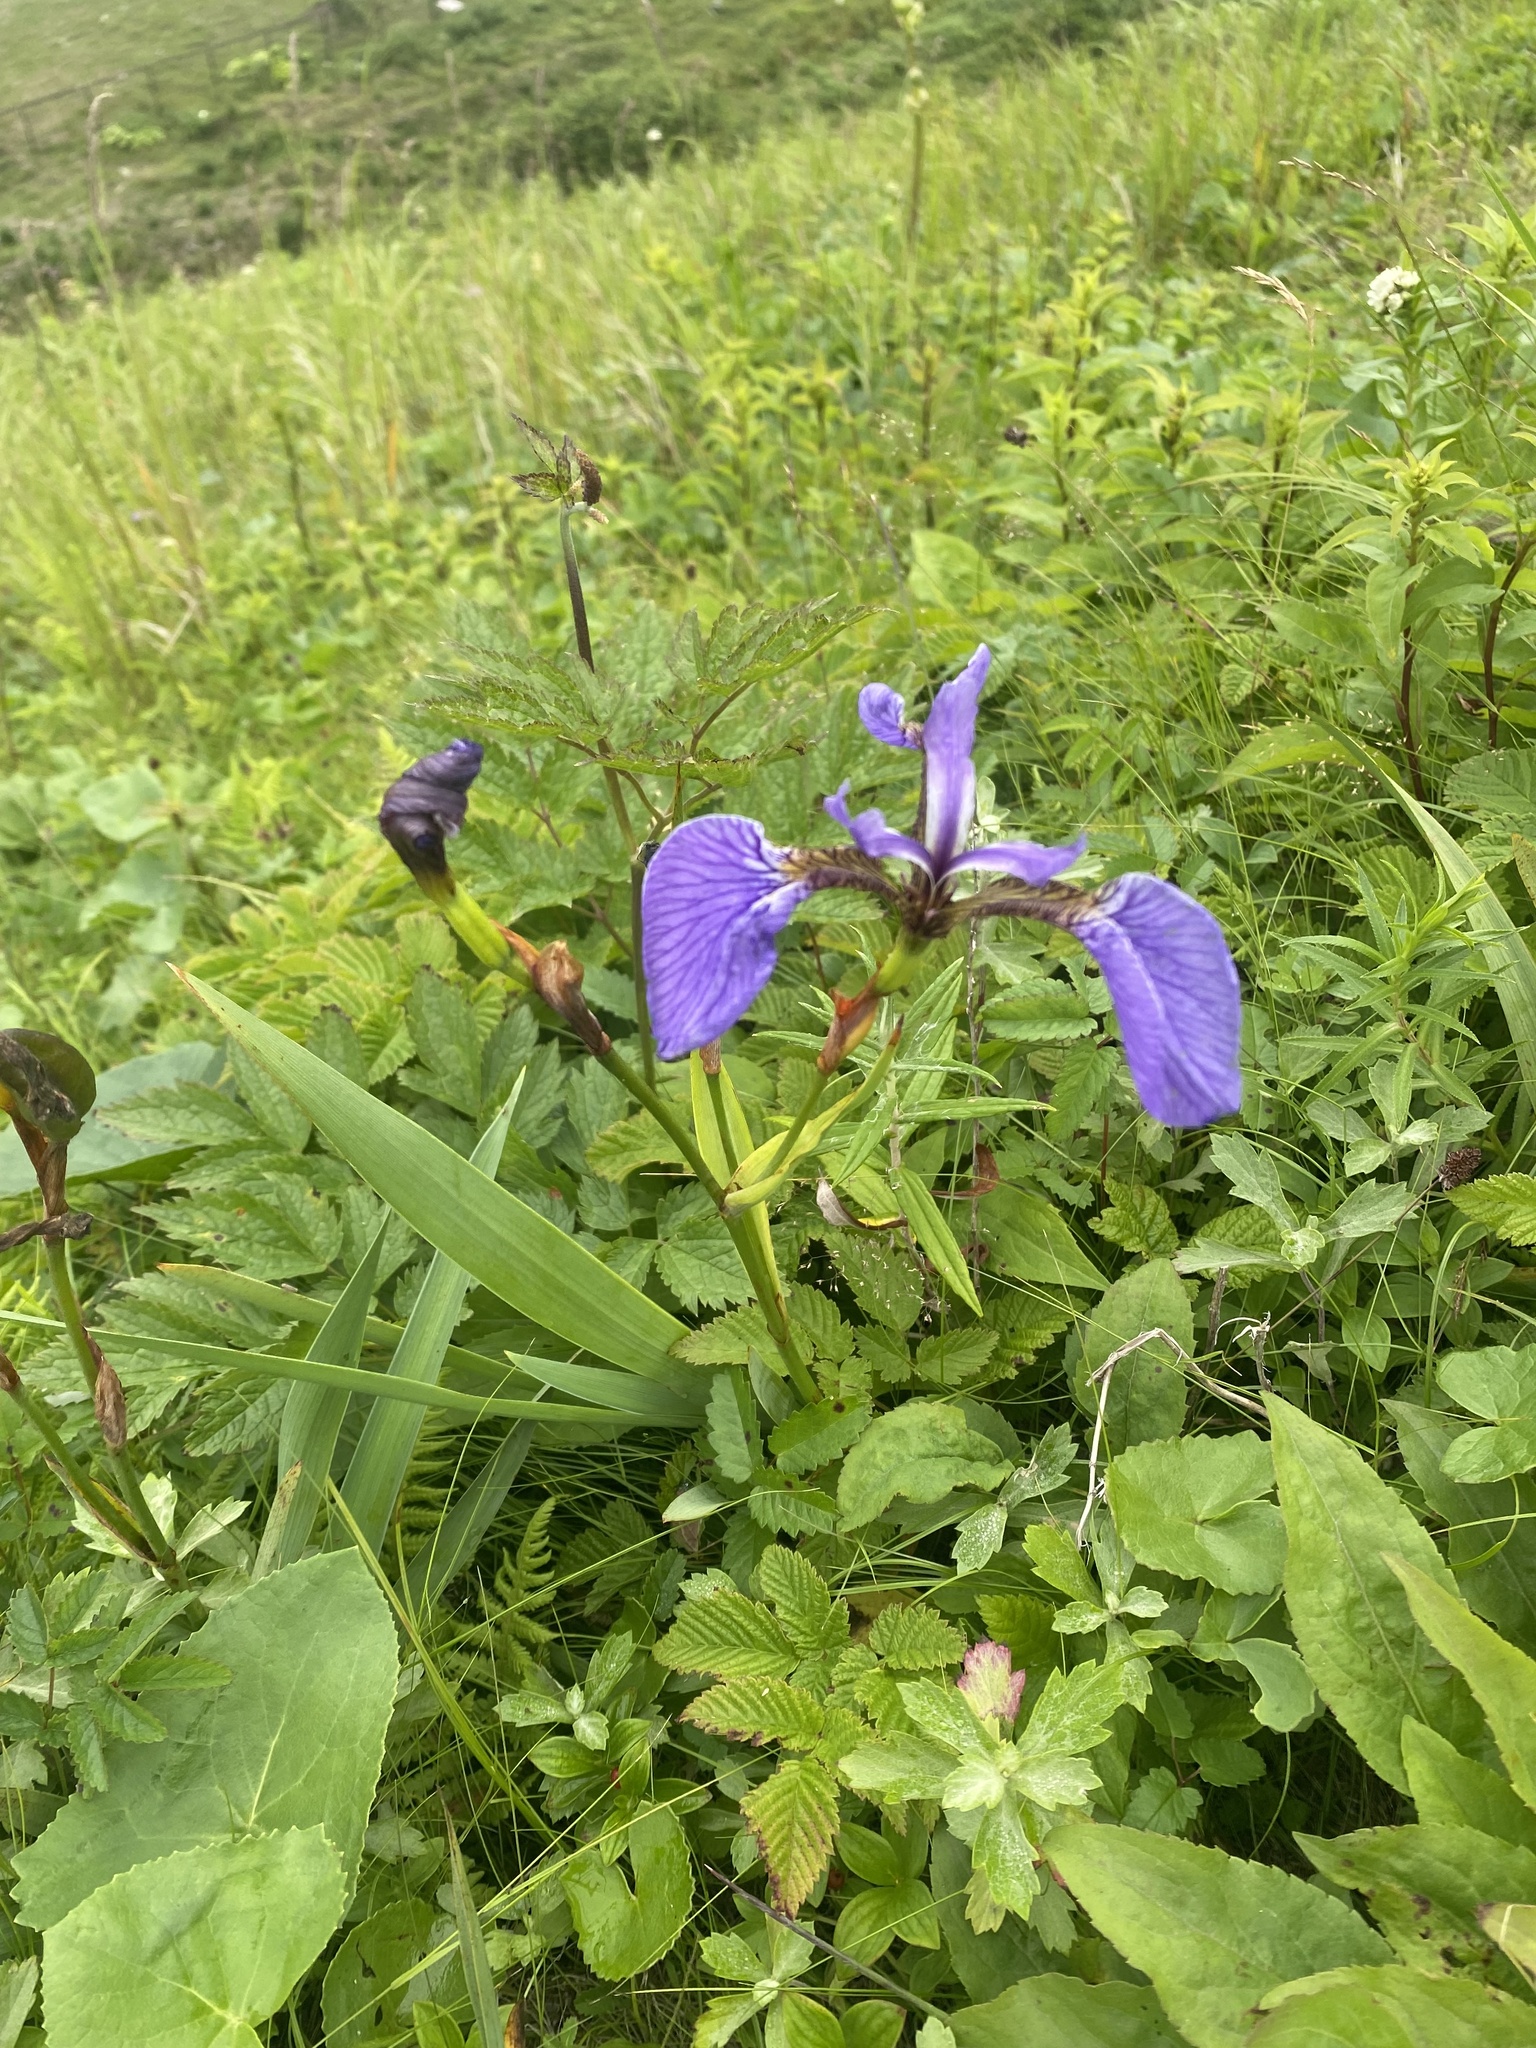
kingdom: Plantae
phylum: Tracheophyta
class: Liliopsida
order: Asparagales
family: Iridaceae
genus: Iris
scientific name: Iris setosa
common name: Arctic blue flag
